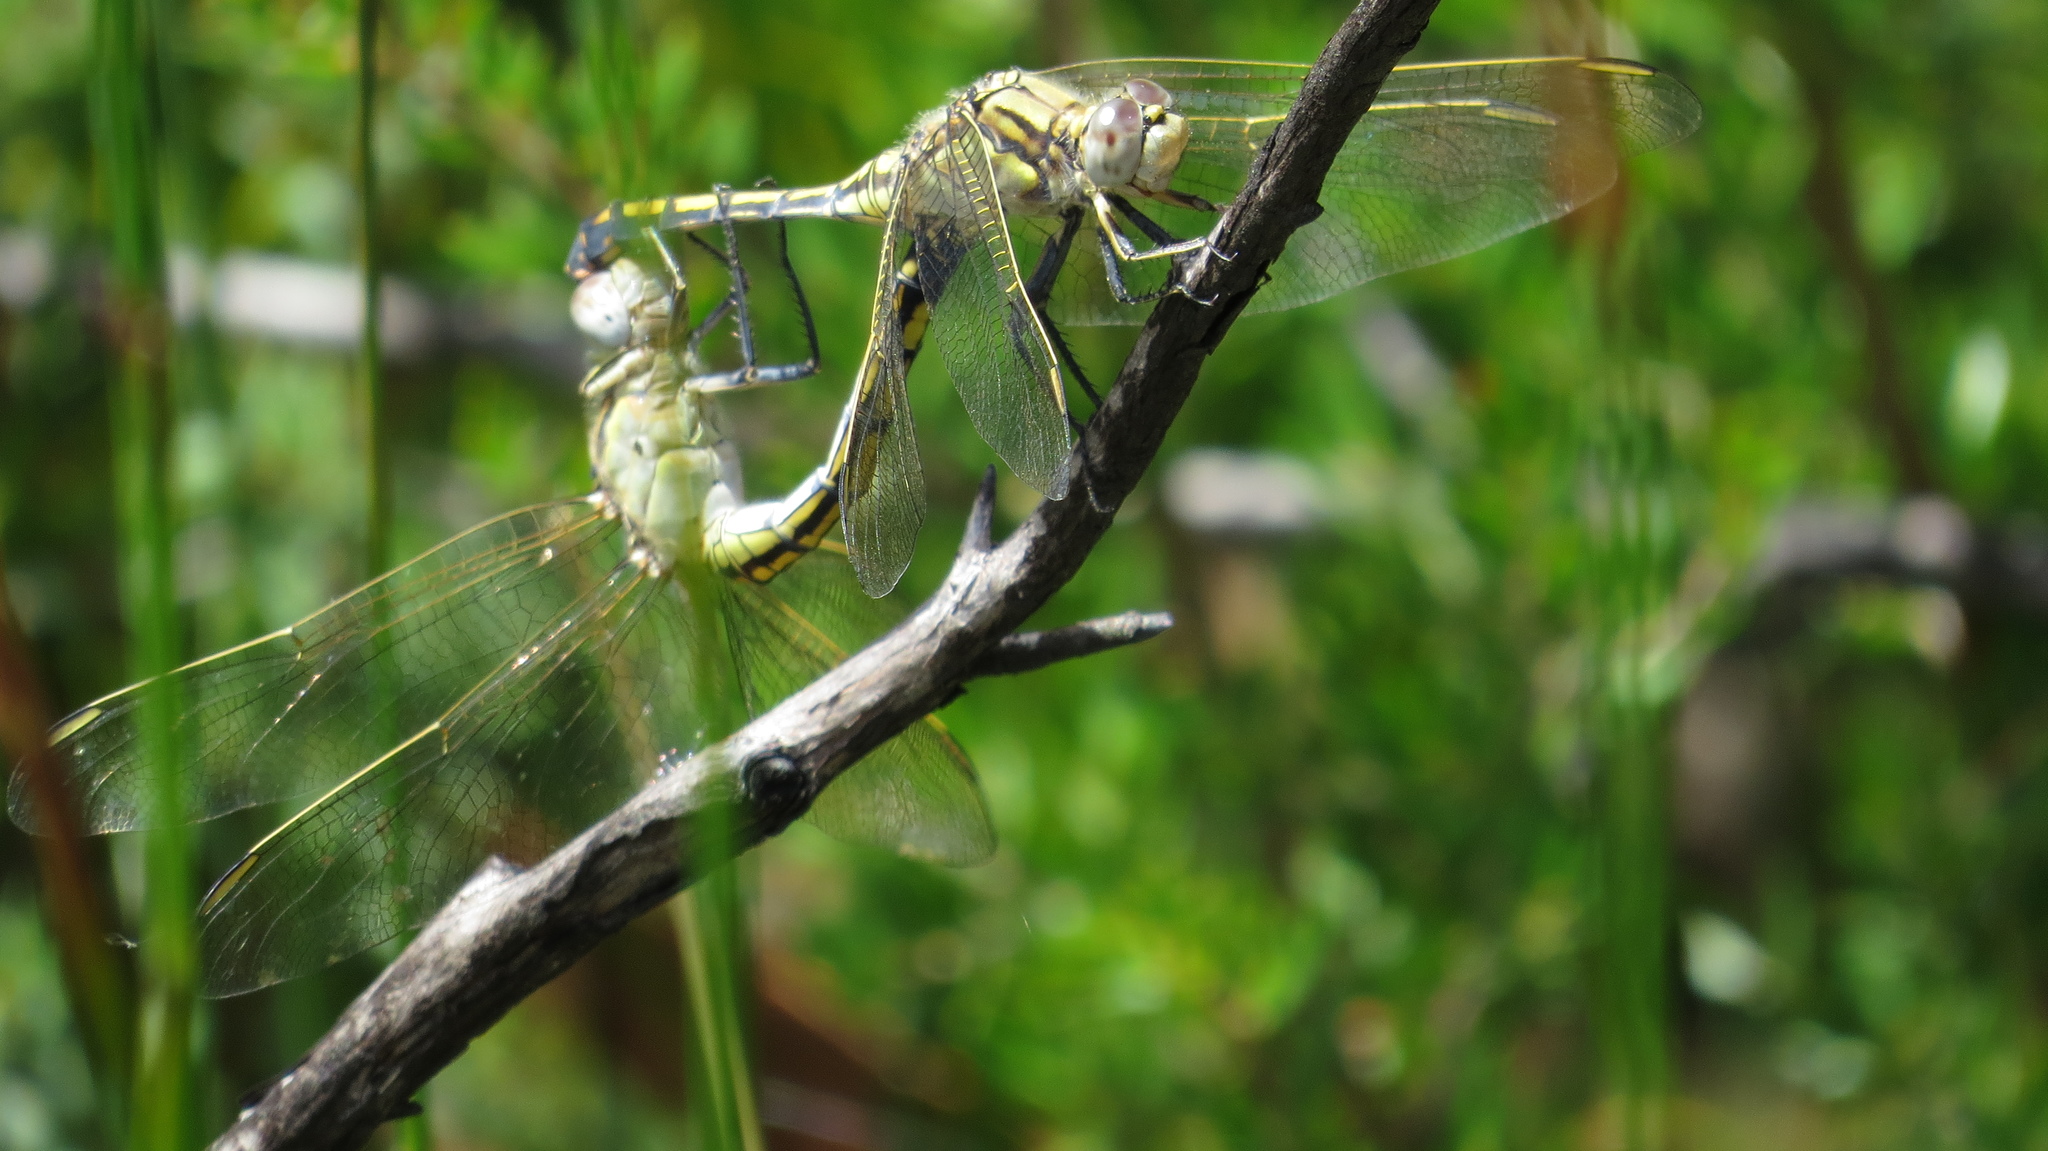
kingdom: Animalia
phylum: Arthropoda
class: Insecta
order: Odonata
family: Libellulidae
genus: Orthetrum
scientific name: Orthetrum caledonicum
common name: Blue skimmer
